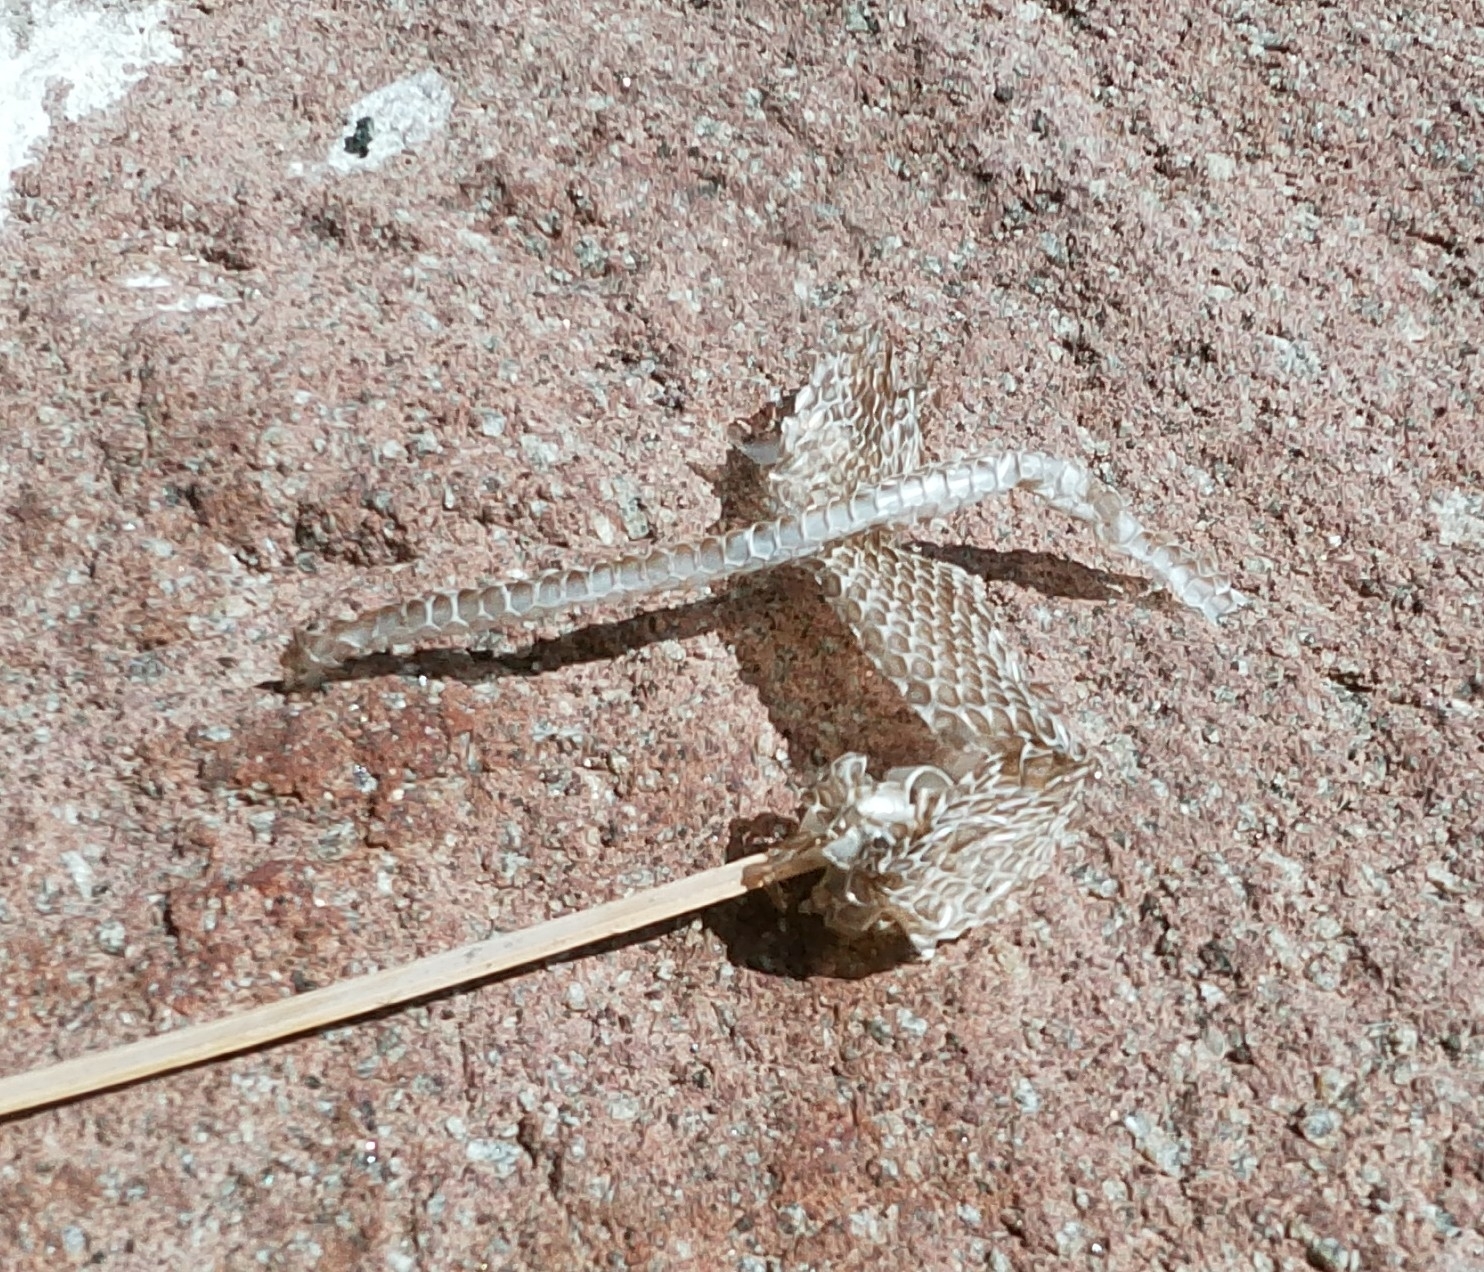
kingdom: Animalia
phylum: Chordata
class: Squamata
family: Colubridae
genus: Hierophis
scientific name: Hierophis viridiflavus
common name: Green whip snake
